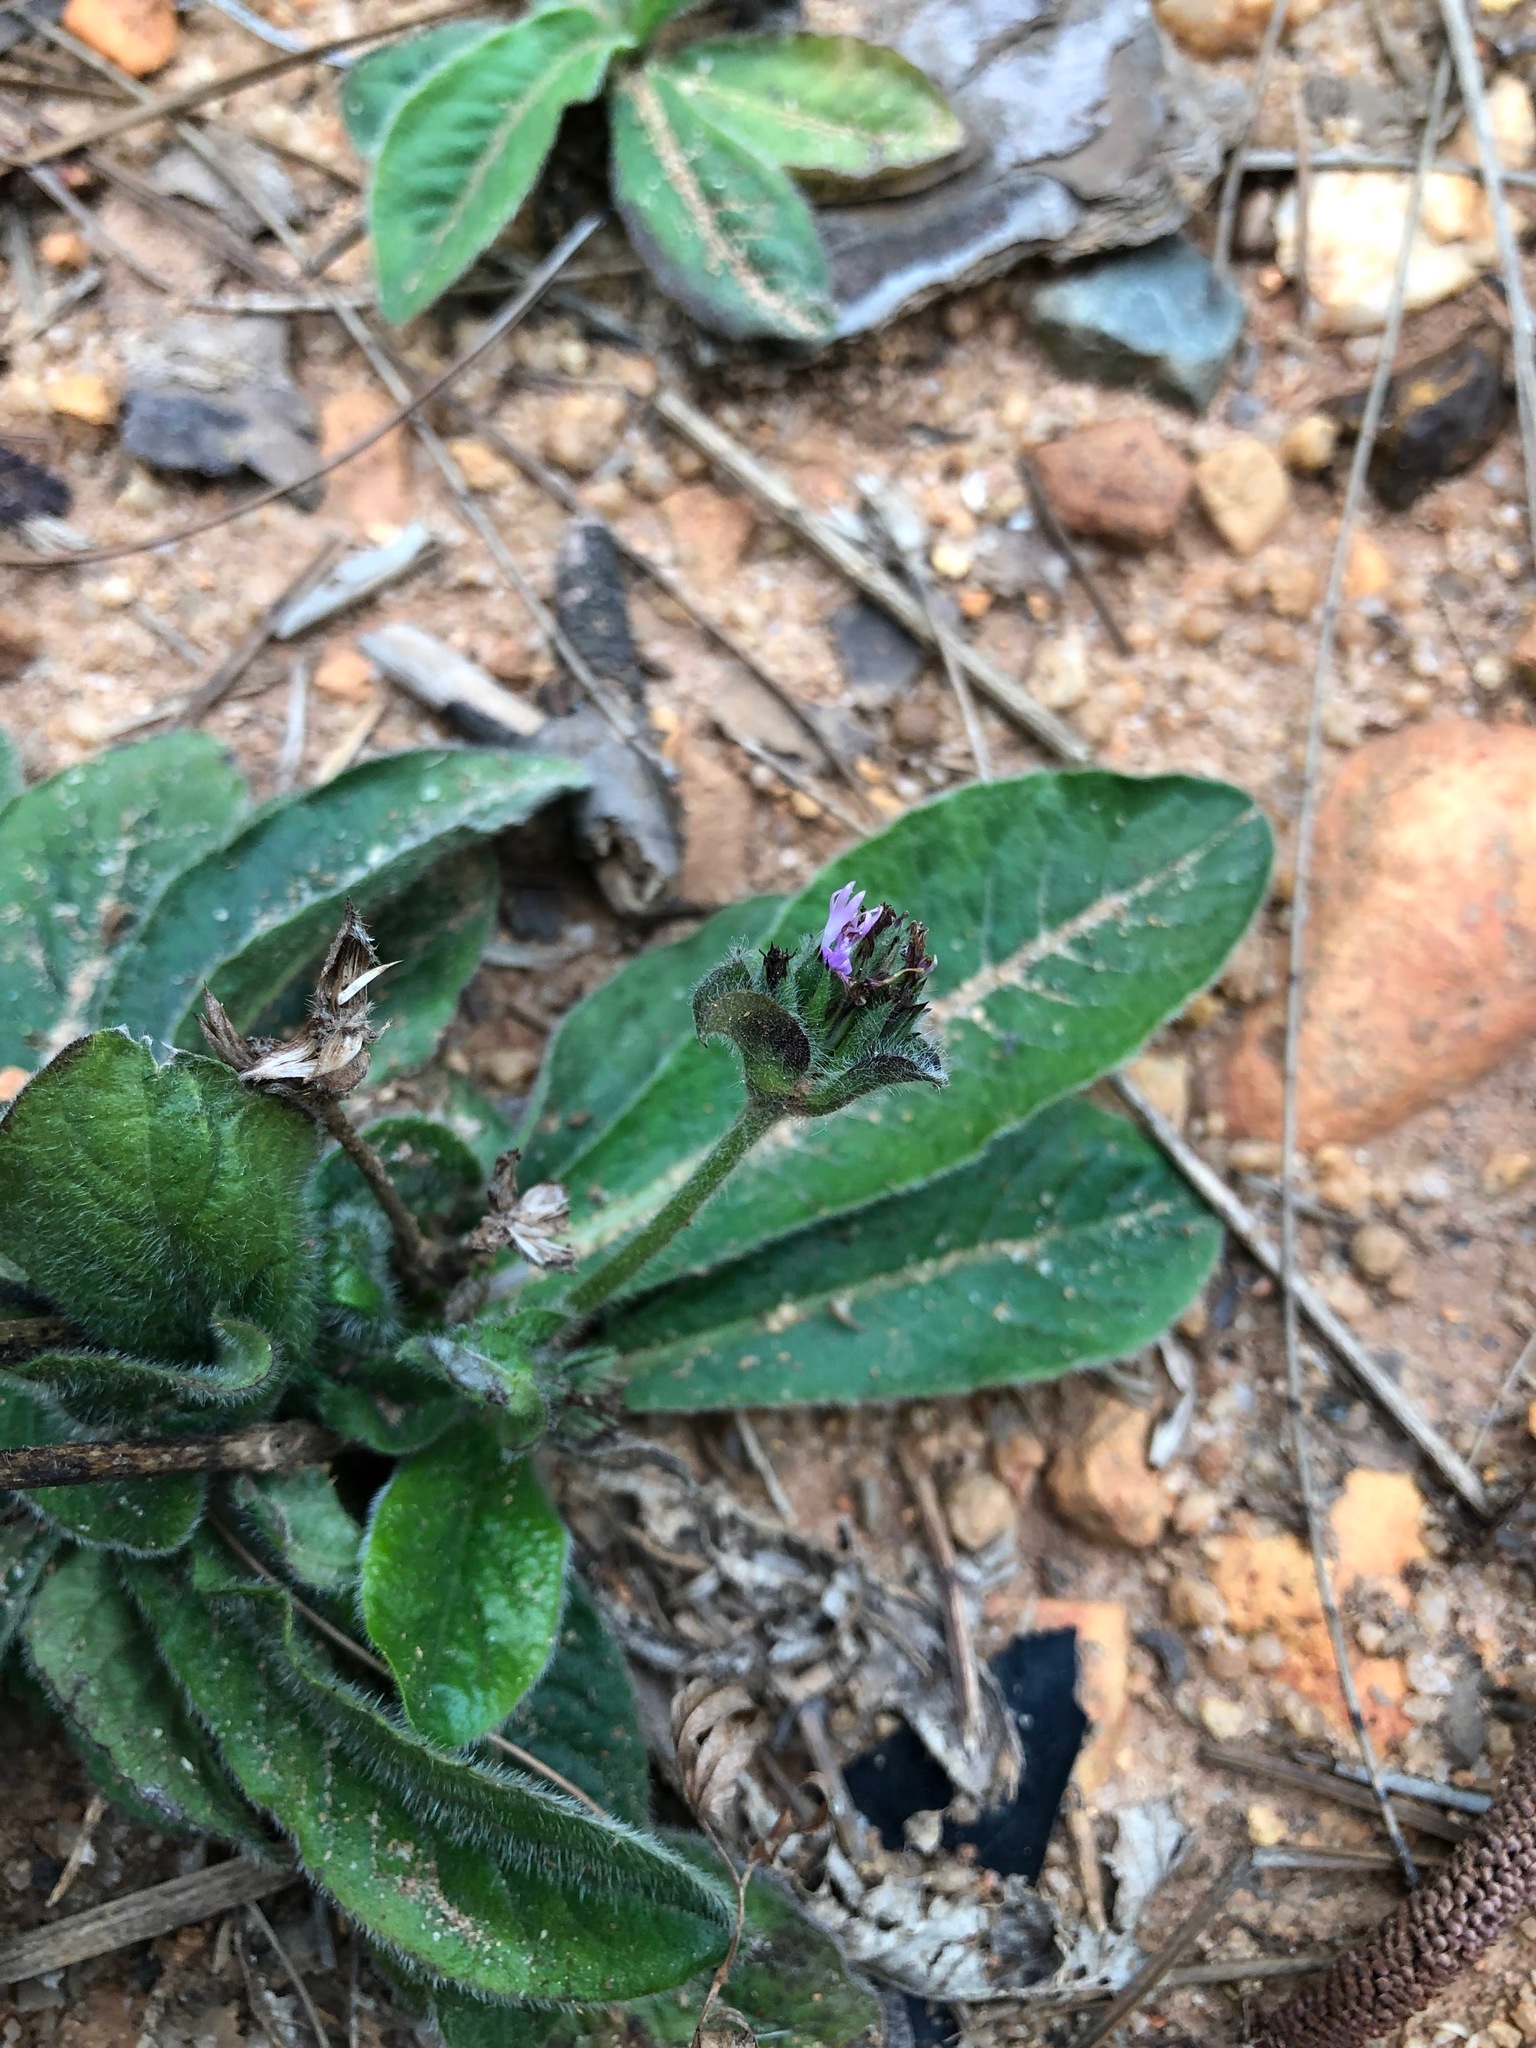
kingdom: Plantae
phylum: Tracheophyta
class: Magnoliopsida
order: Asterales
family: Asteraceae
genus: Elephantopus
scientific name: Elephantopus scaber
